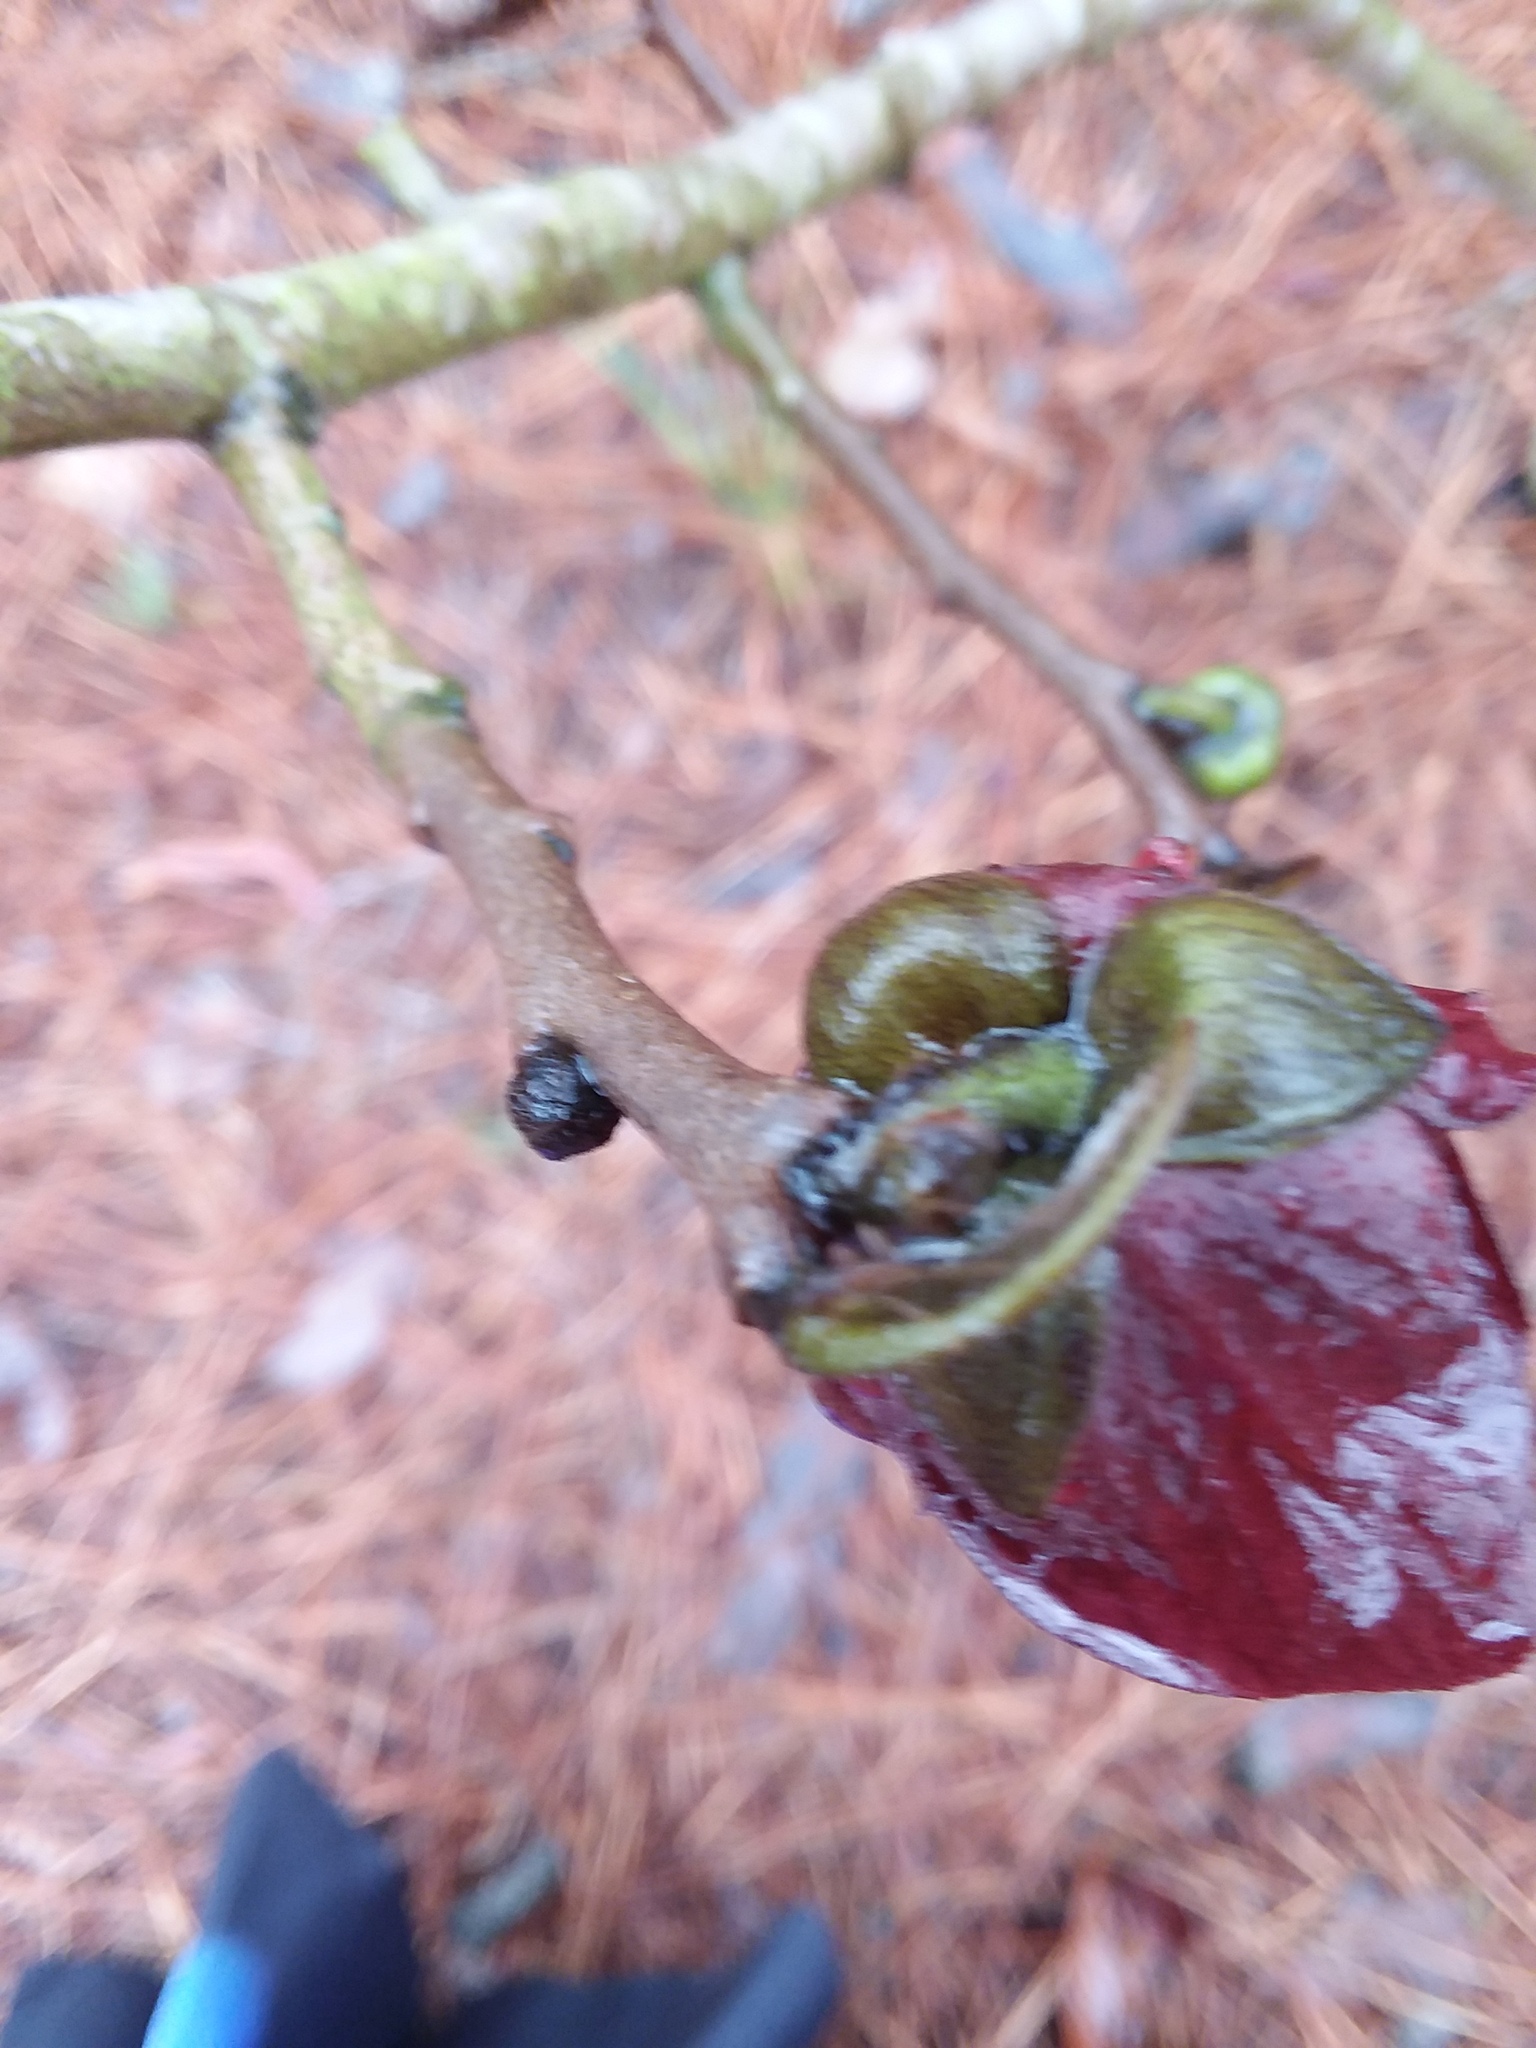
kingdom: Animalia
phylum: Arthropoda
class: Insecta
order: Hymenoptera
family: Formicidae
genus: Prenolepis
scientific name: Prenolepis imparis
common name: Small honey ant
